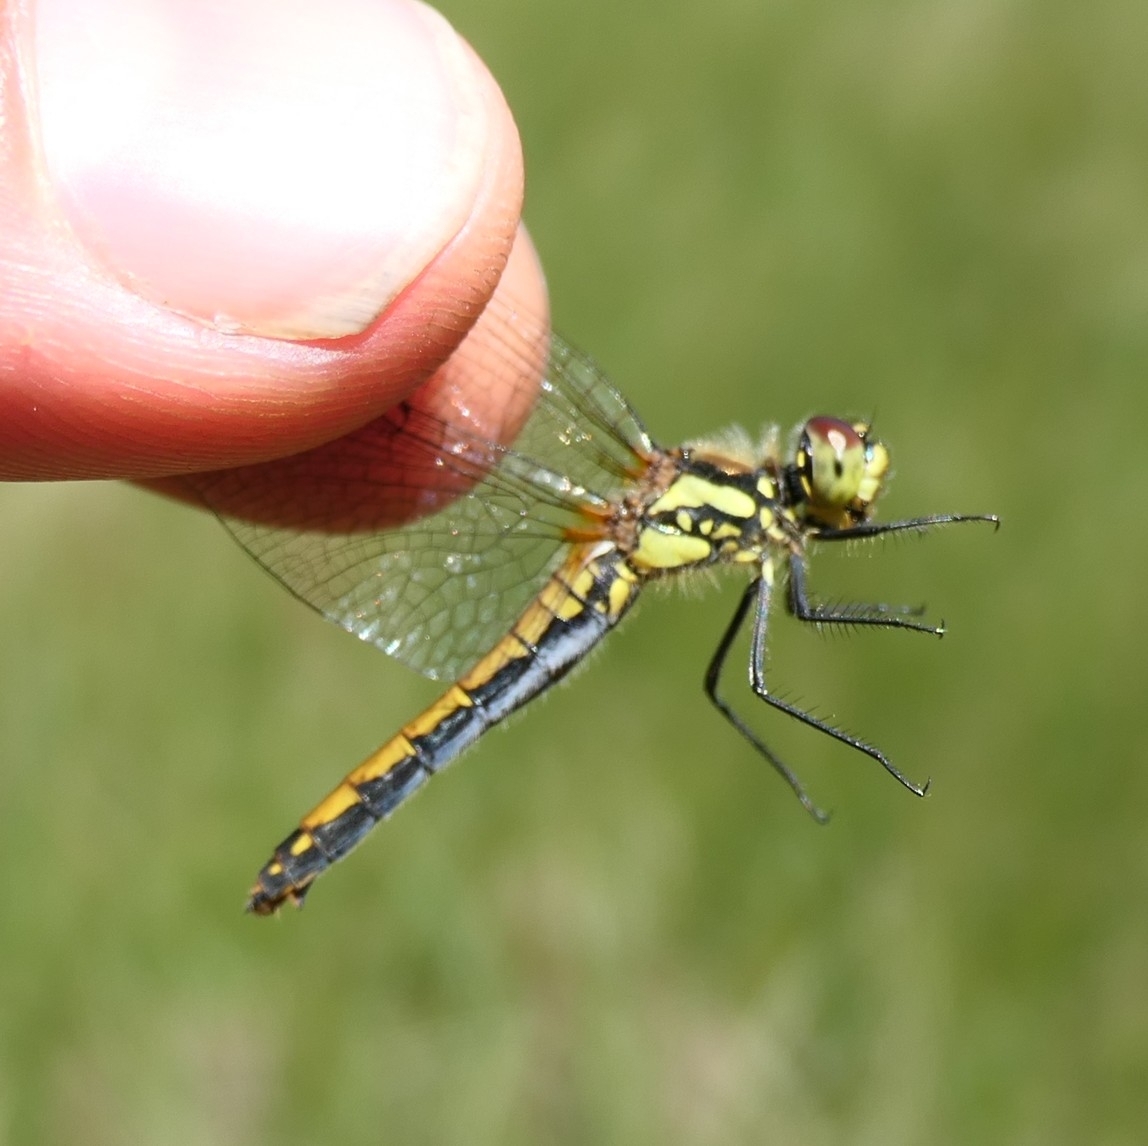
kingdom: Animalia
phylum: Arthropoda
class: Insecta
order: Odonata
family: Libellulidae
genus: Sympetrum
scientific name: Sympetrum danae
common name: Black darter
